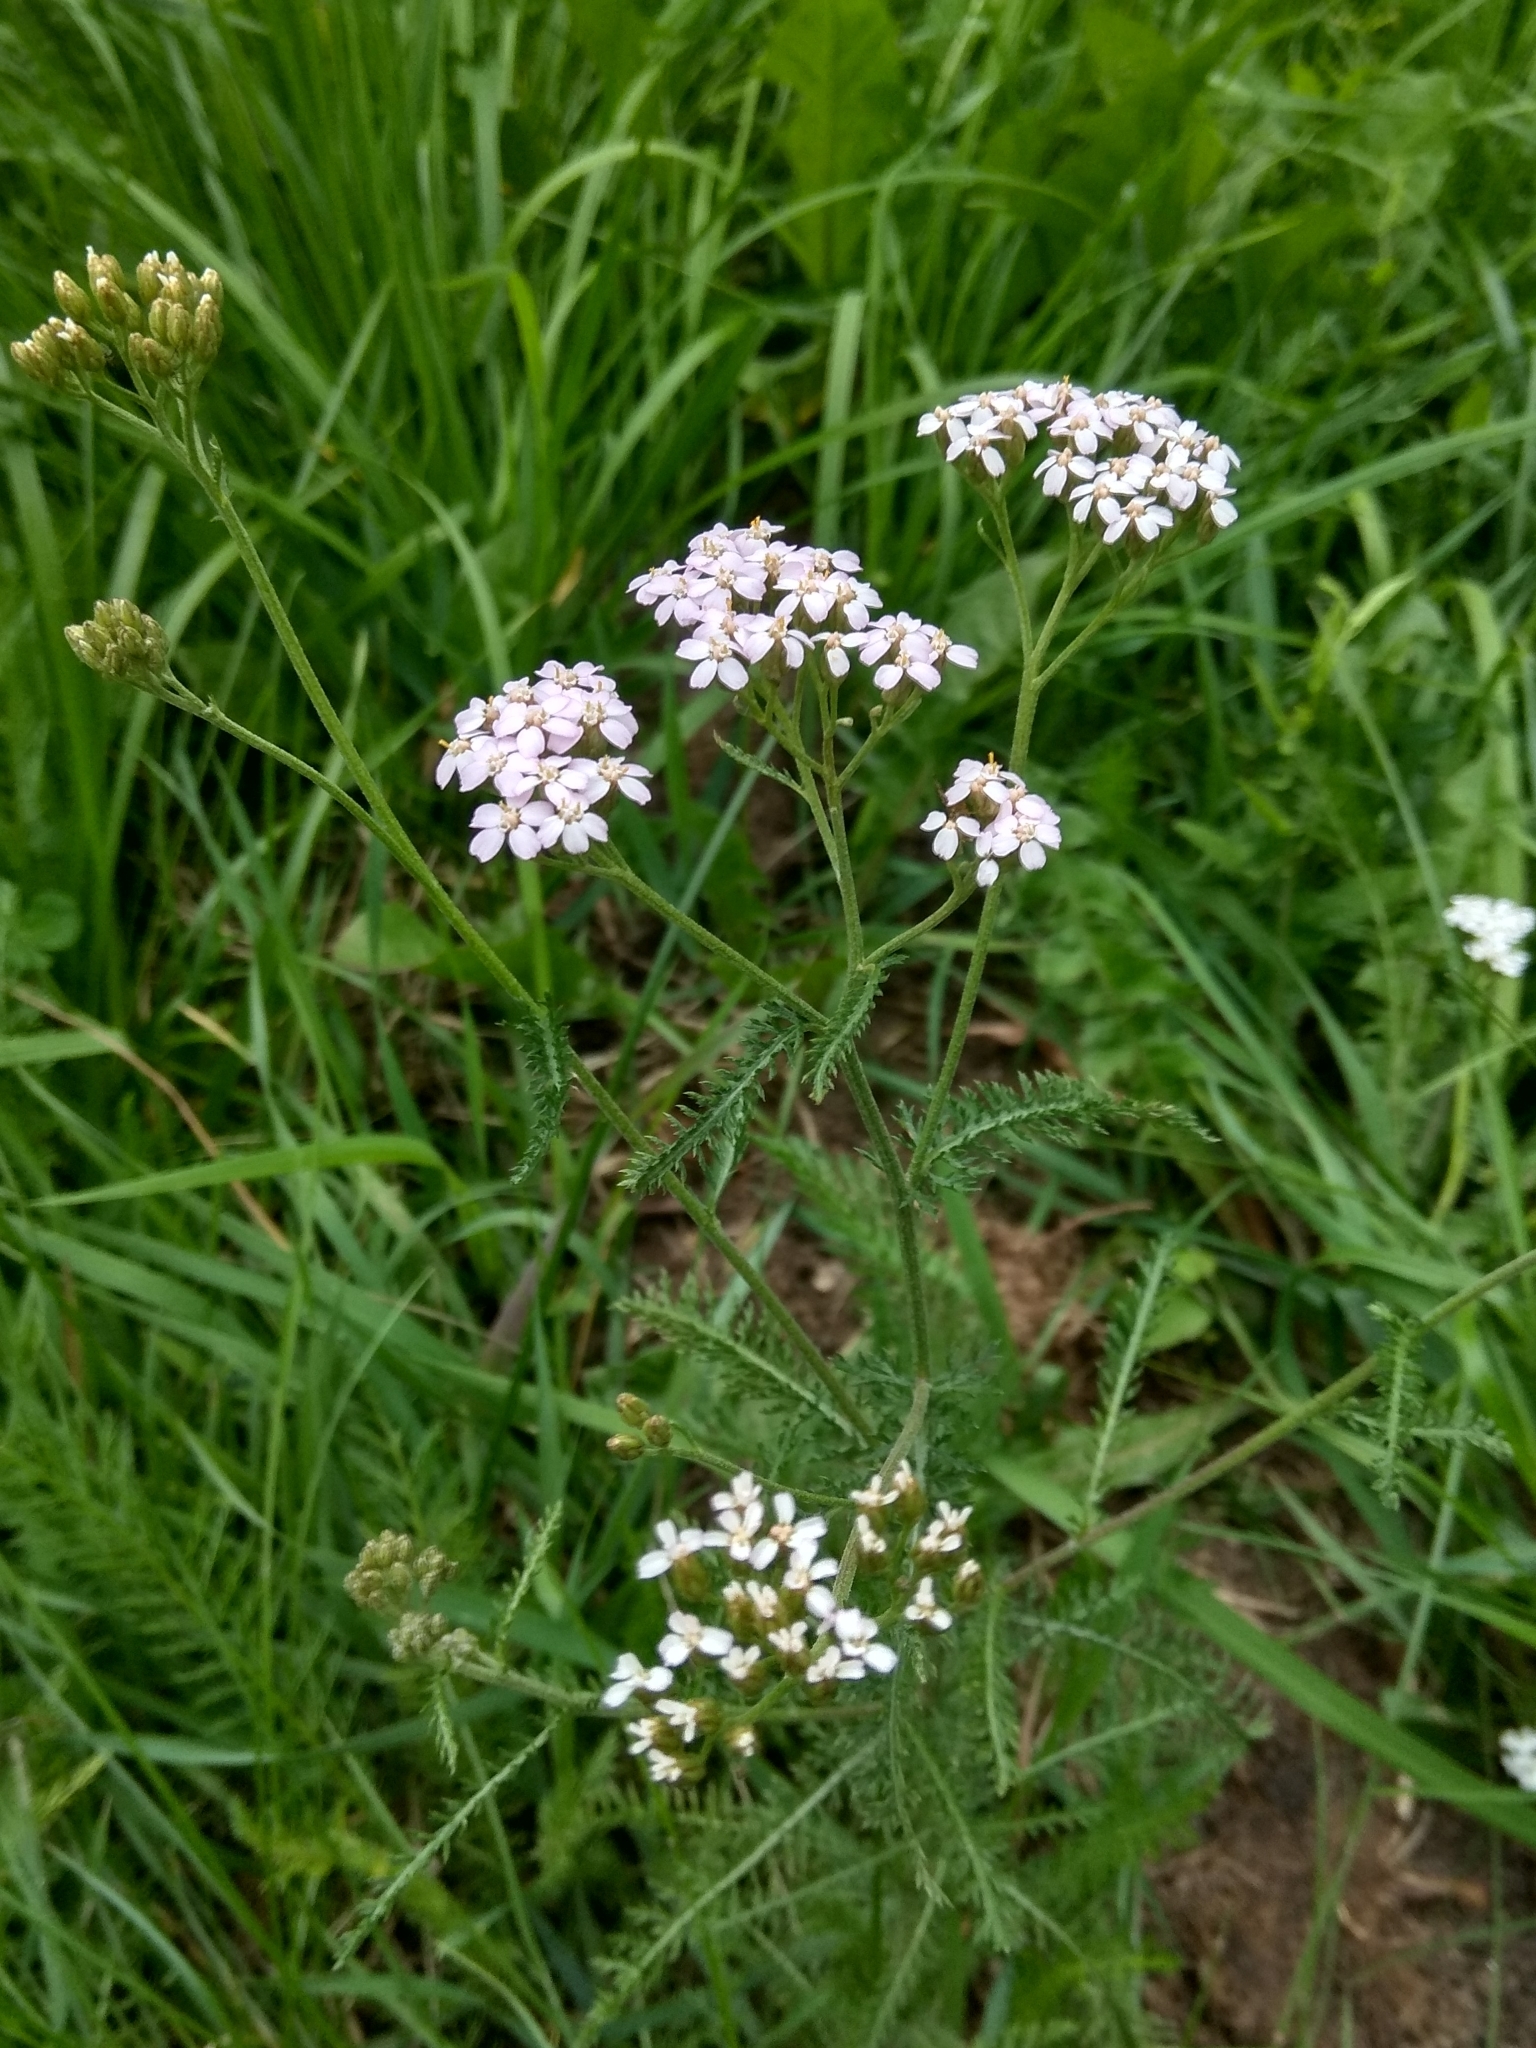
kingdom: Plantae
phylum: Tracheophyta
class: Magnoliopsida
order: Asterales
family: Asteraceae
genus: Achillea
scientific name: Achillea millefolium
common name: Yarrow
